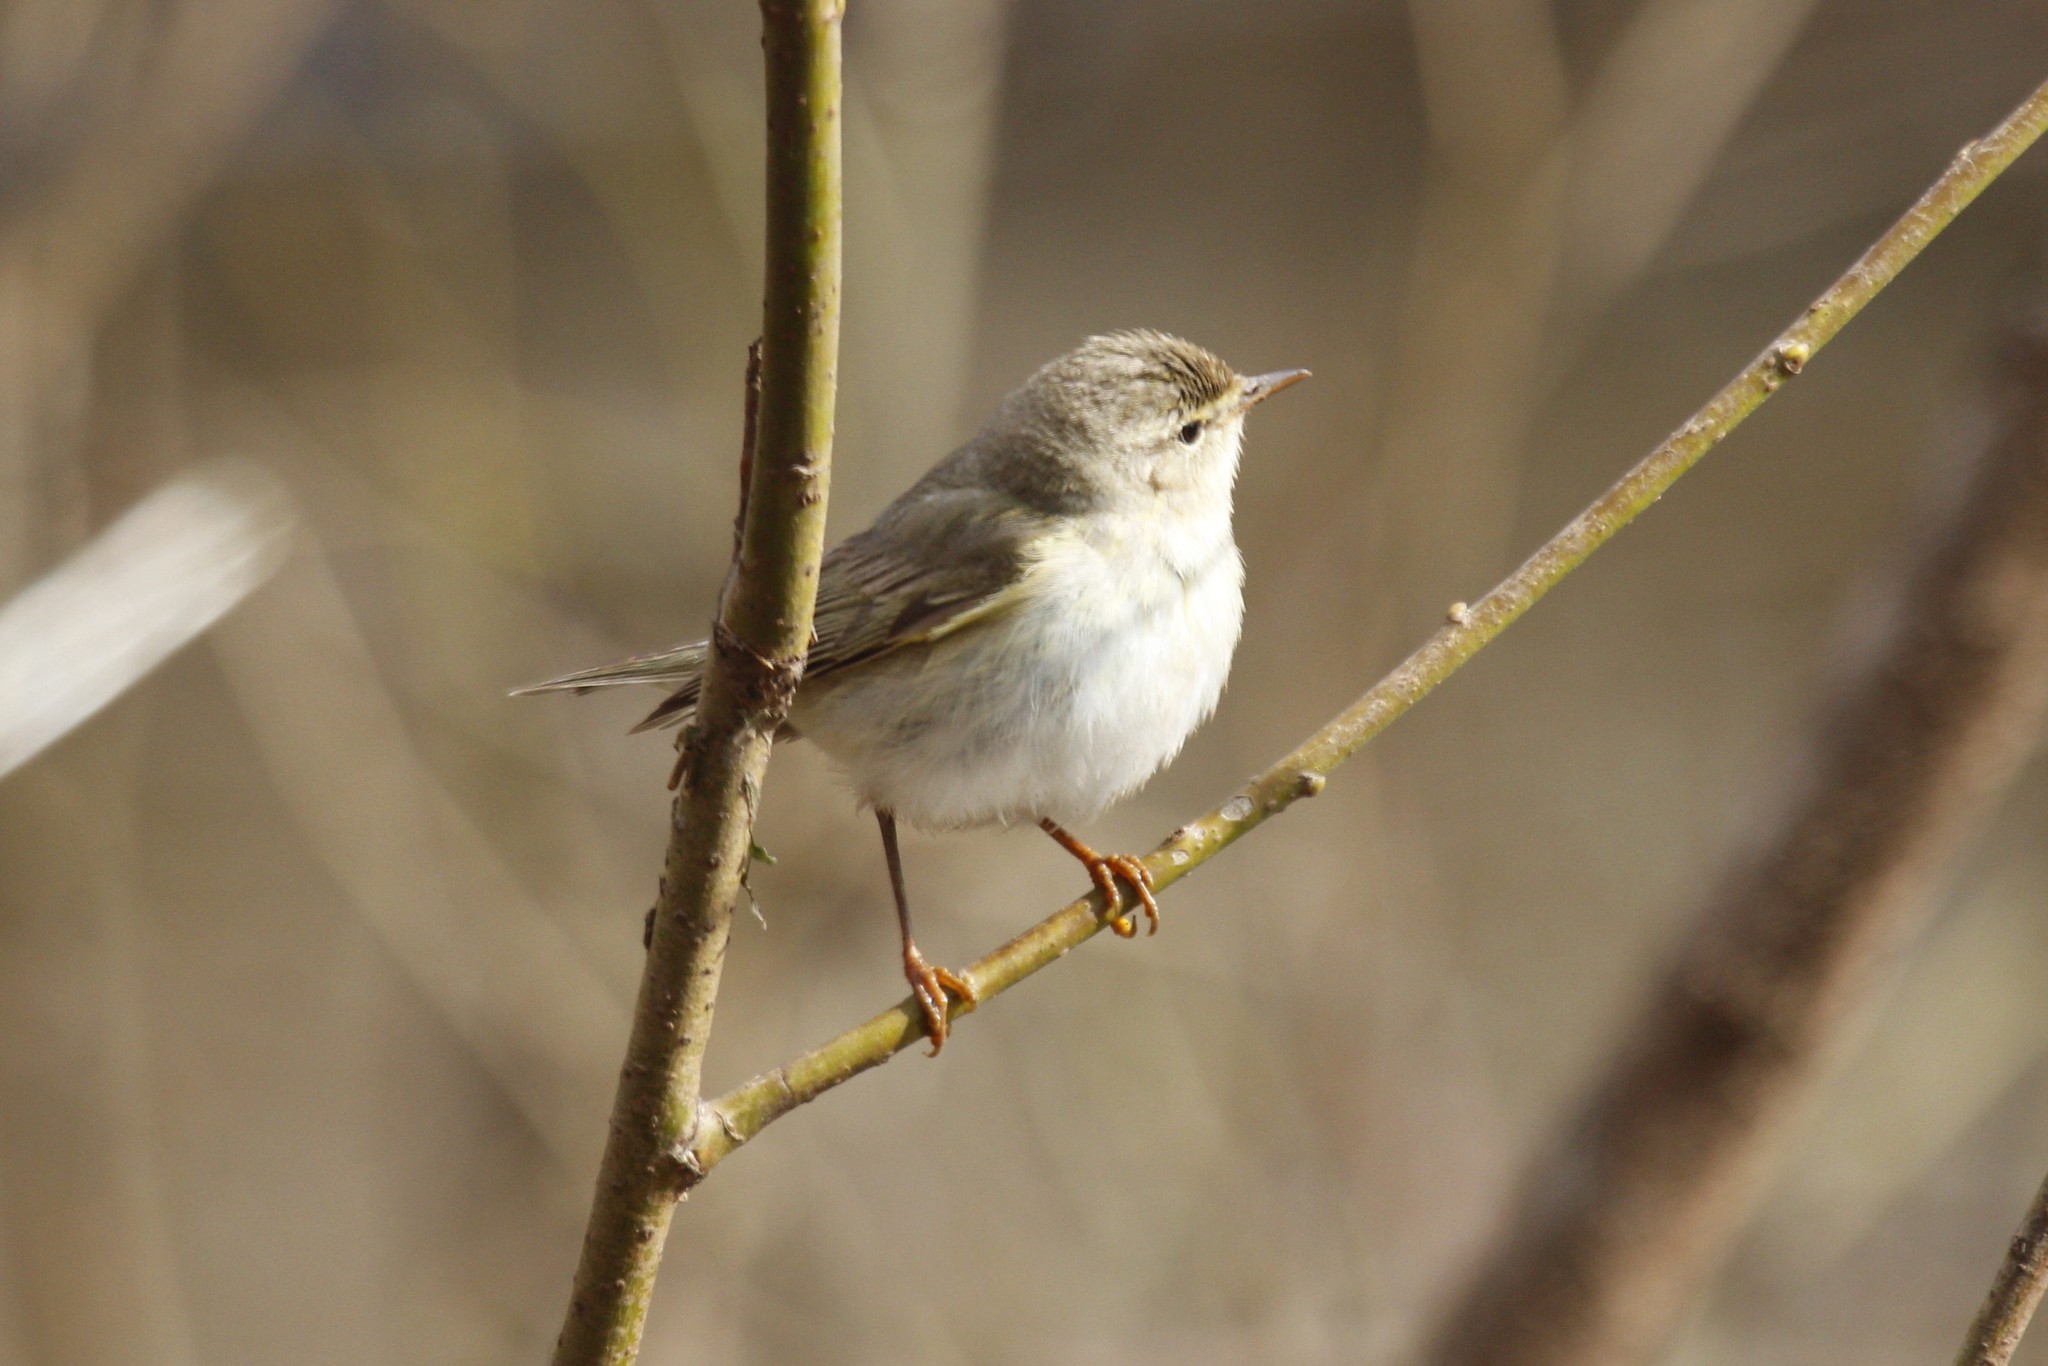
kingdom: Animalia
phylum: Chordata
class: Aves
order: Passeriformes
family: Phylloscopidae
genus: Phylloscopus
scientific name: Phylloscopus collybita
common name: Common chiffchaff
